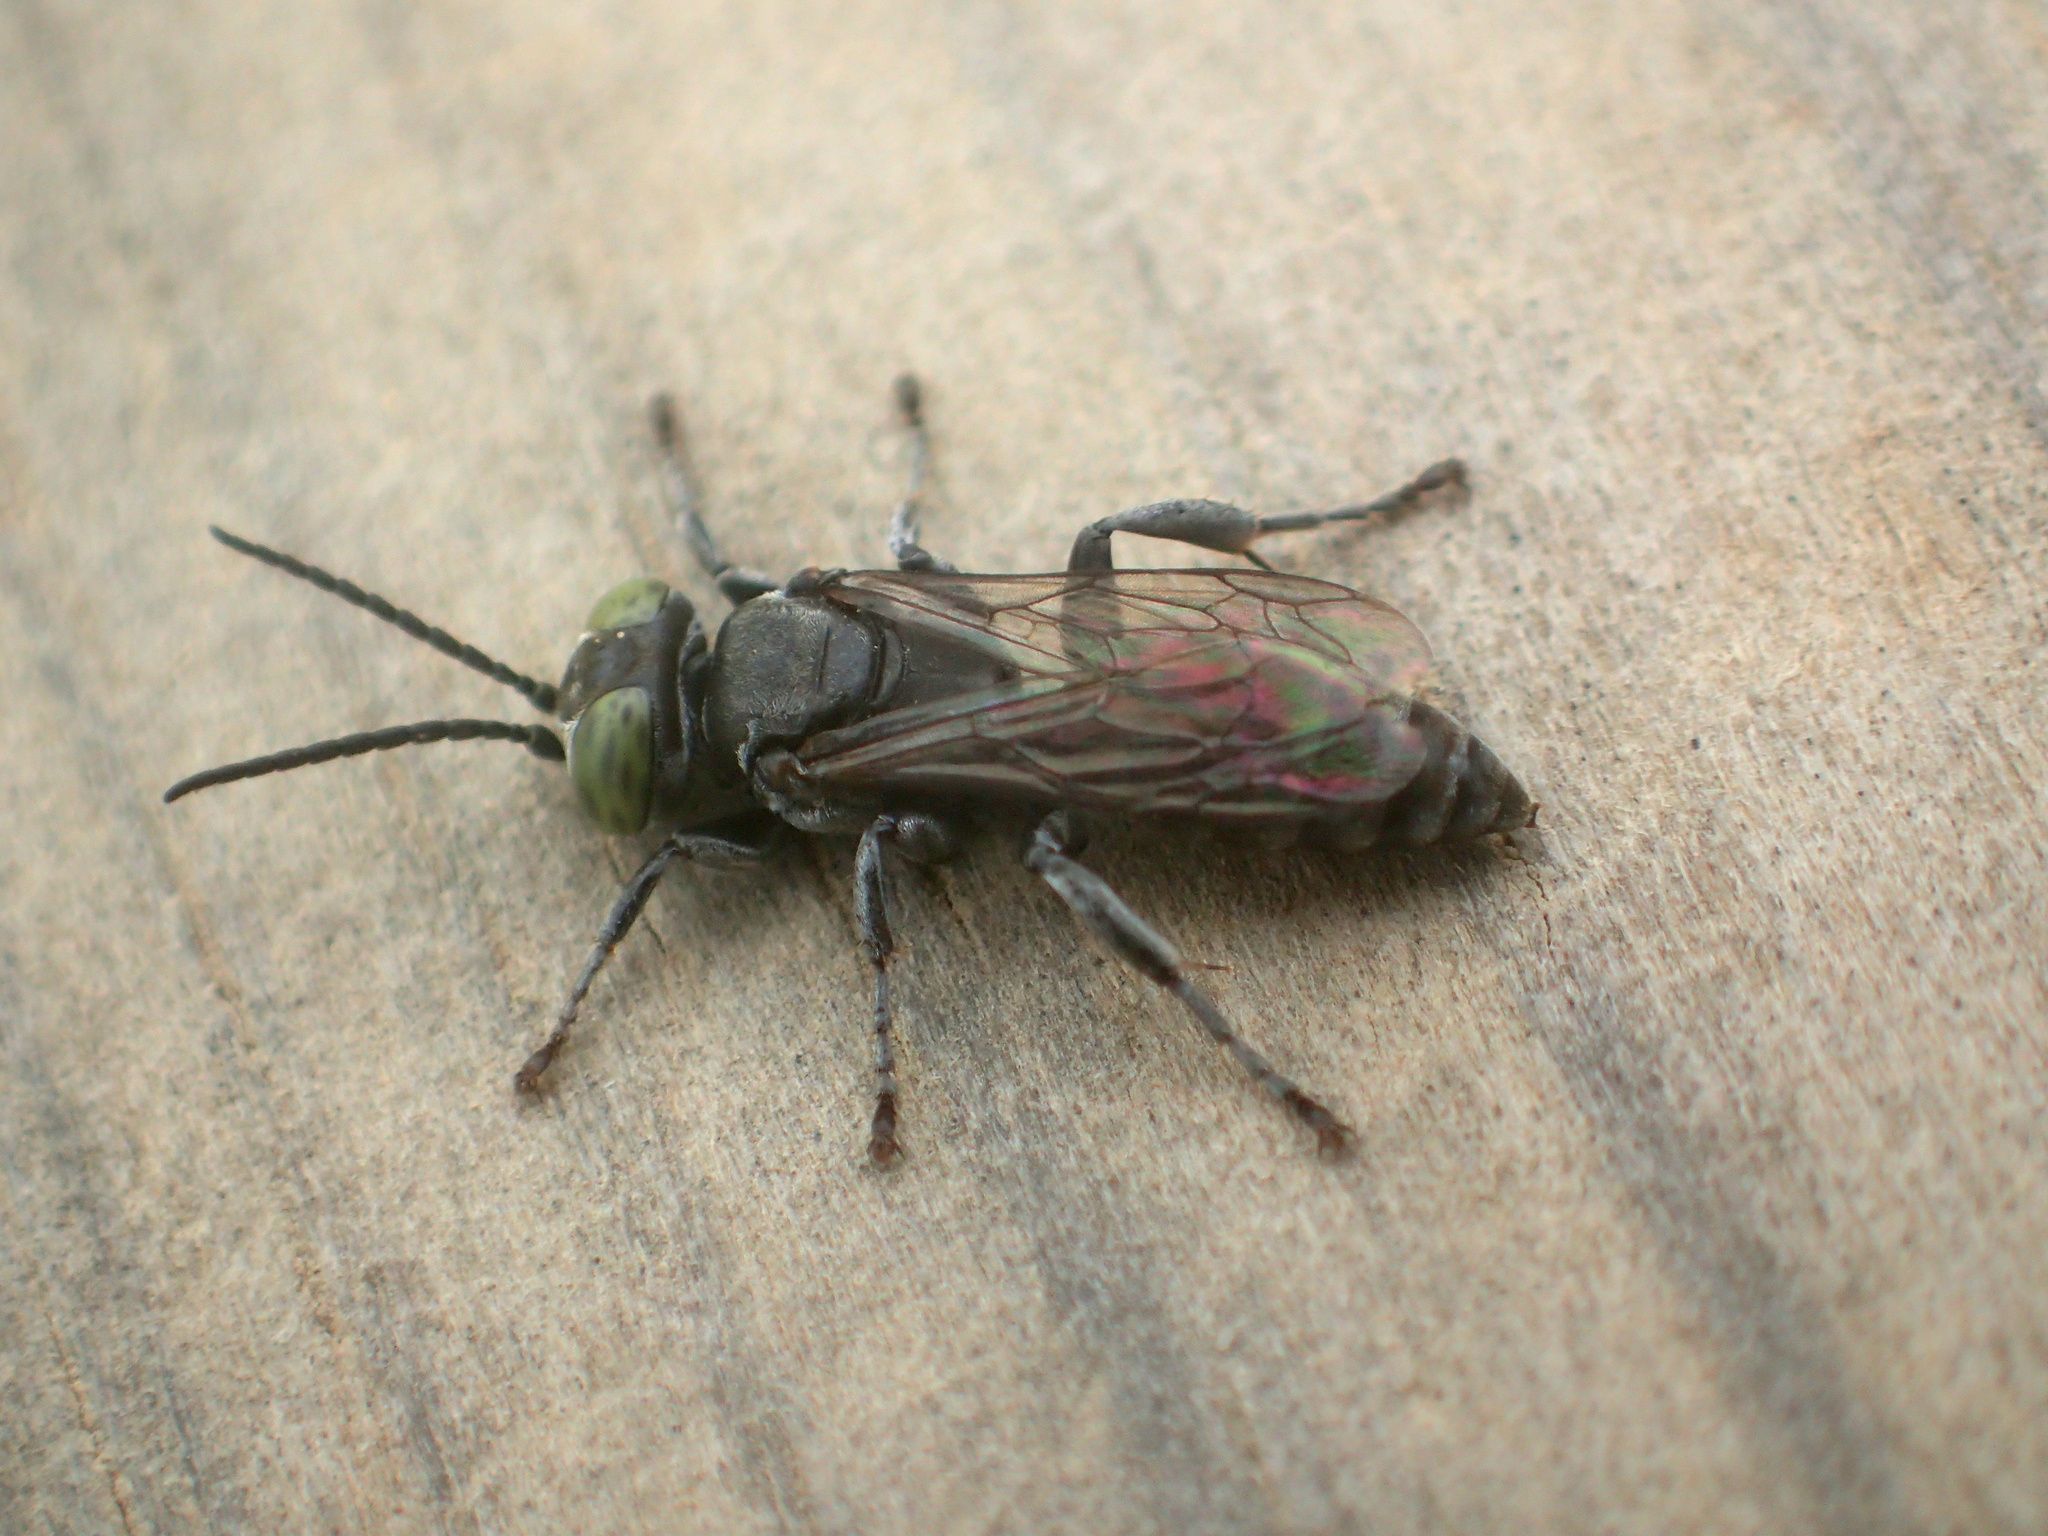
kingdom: Animalia
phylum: Arthropoda
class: Insecta
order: Hymenoptera
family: Crabronidae
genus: Tachysphex
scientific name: Tachysphex nigerrimus
